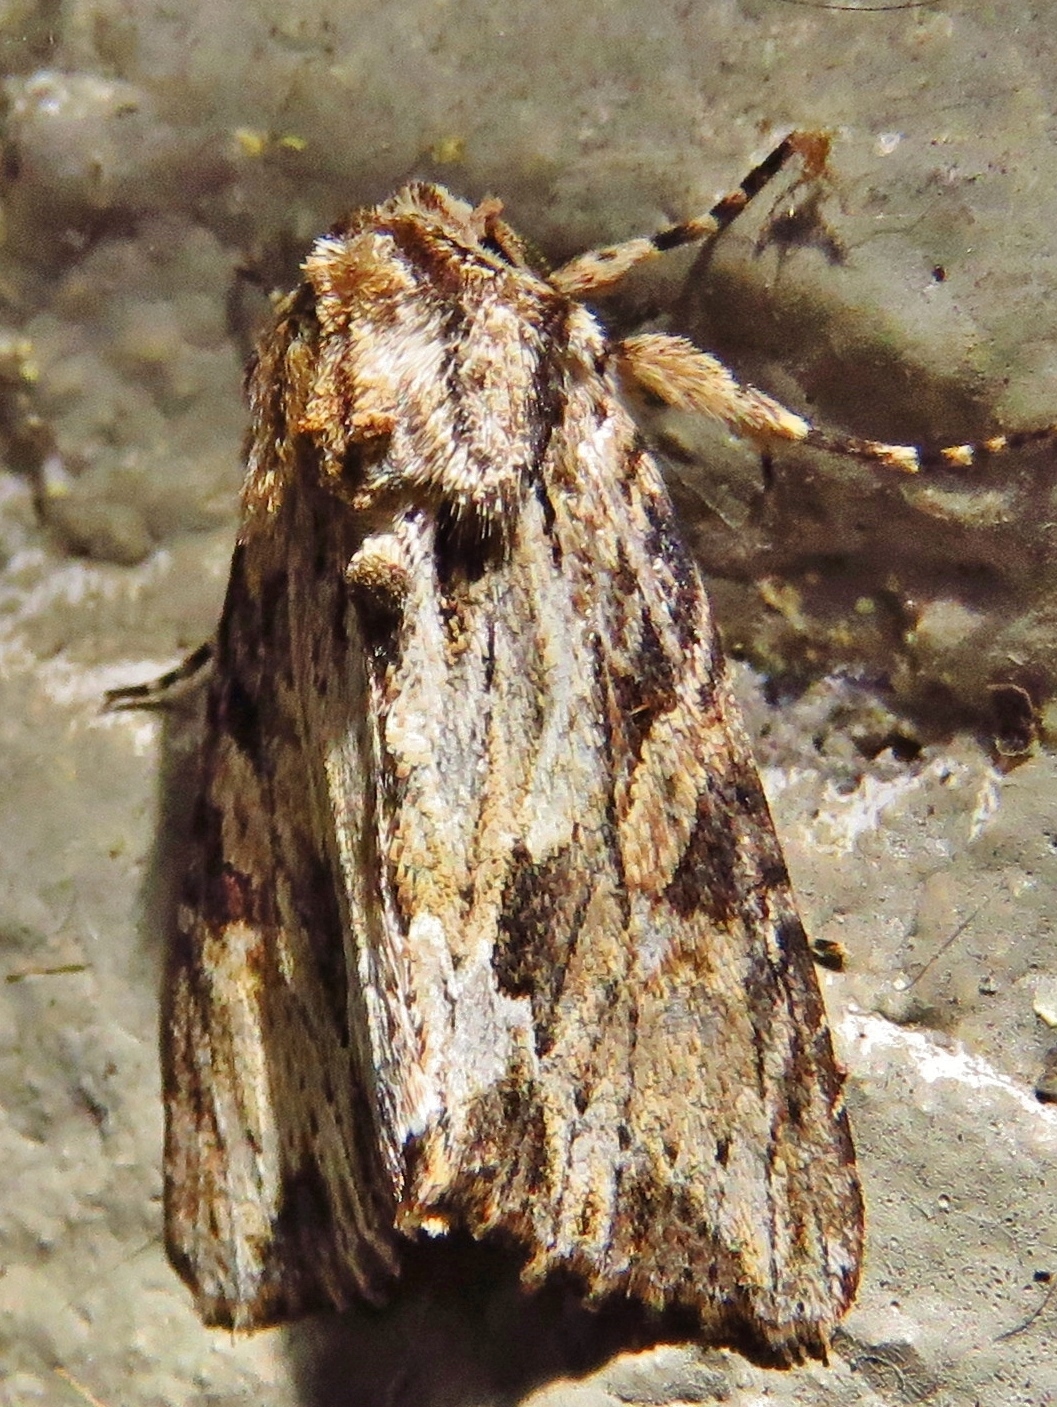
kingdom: Animalia
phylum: Arthropoda
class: Insecta
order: Lepidoptera
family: Noctuidae
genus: Achatia
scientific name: Achatia mucens
